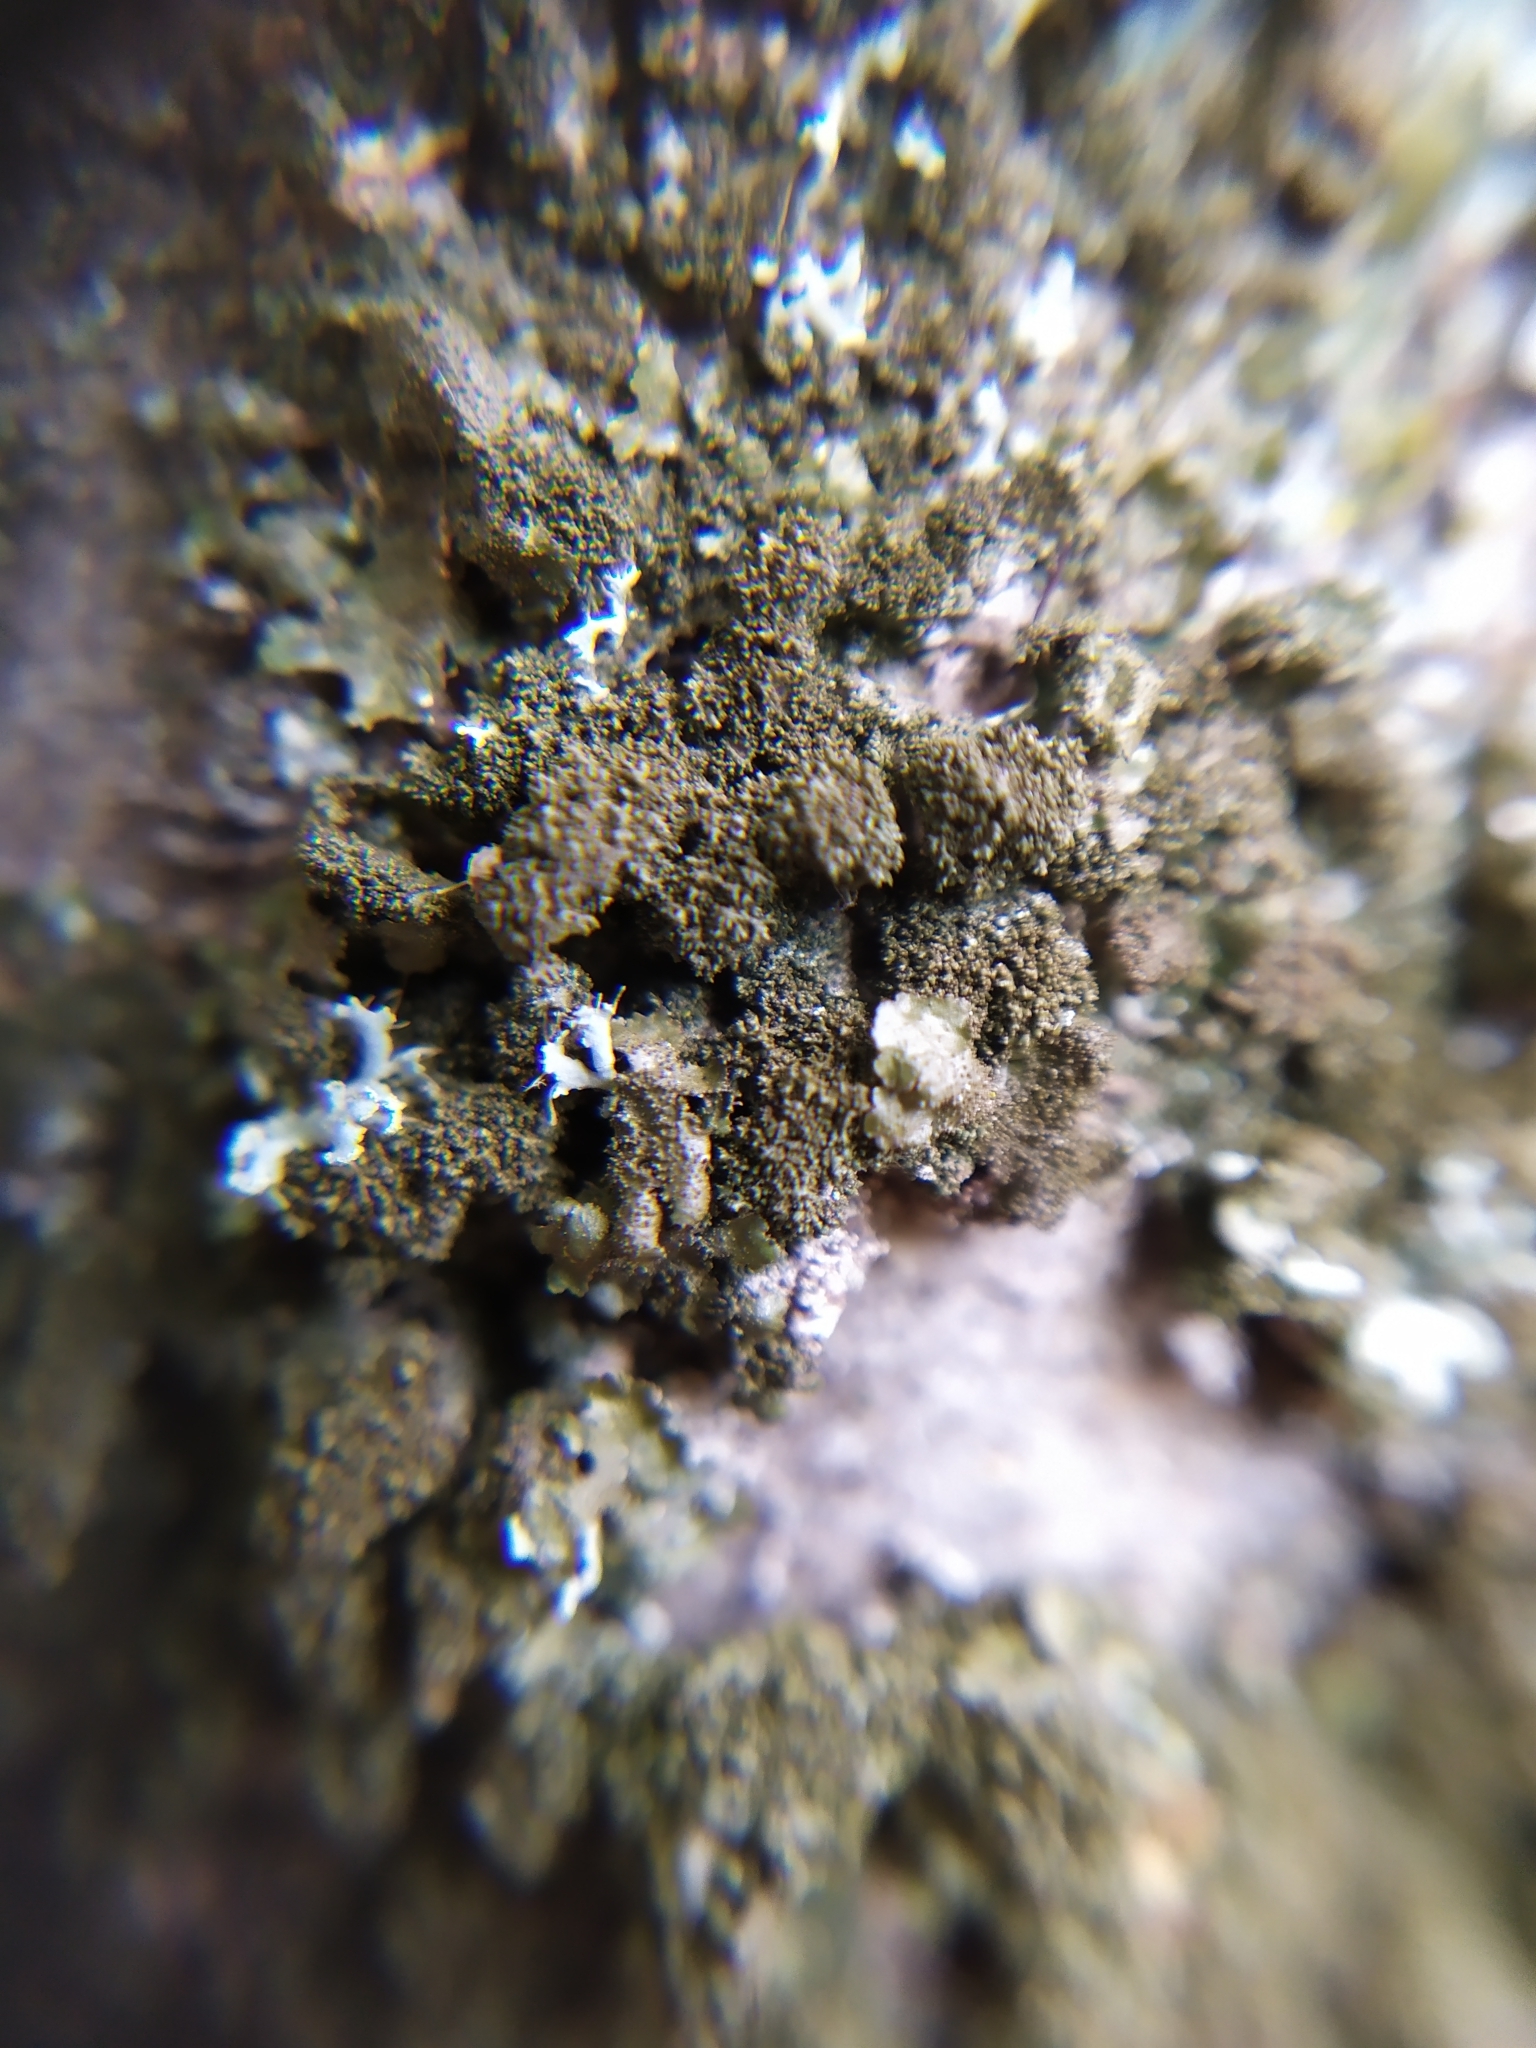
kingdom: Fungi
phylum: Ascomycota
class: Lecanoromycetes
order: Lecanorales
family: Parmeliaceae
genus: Melanohalea
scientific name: Melanohalea exasperatula
